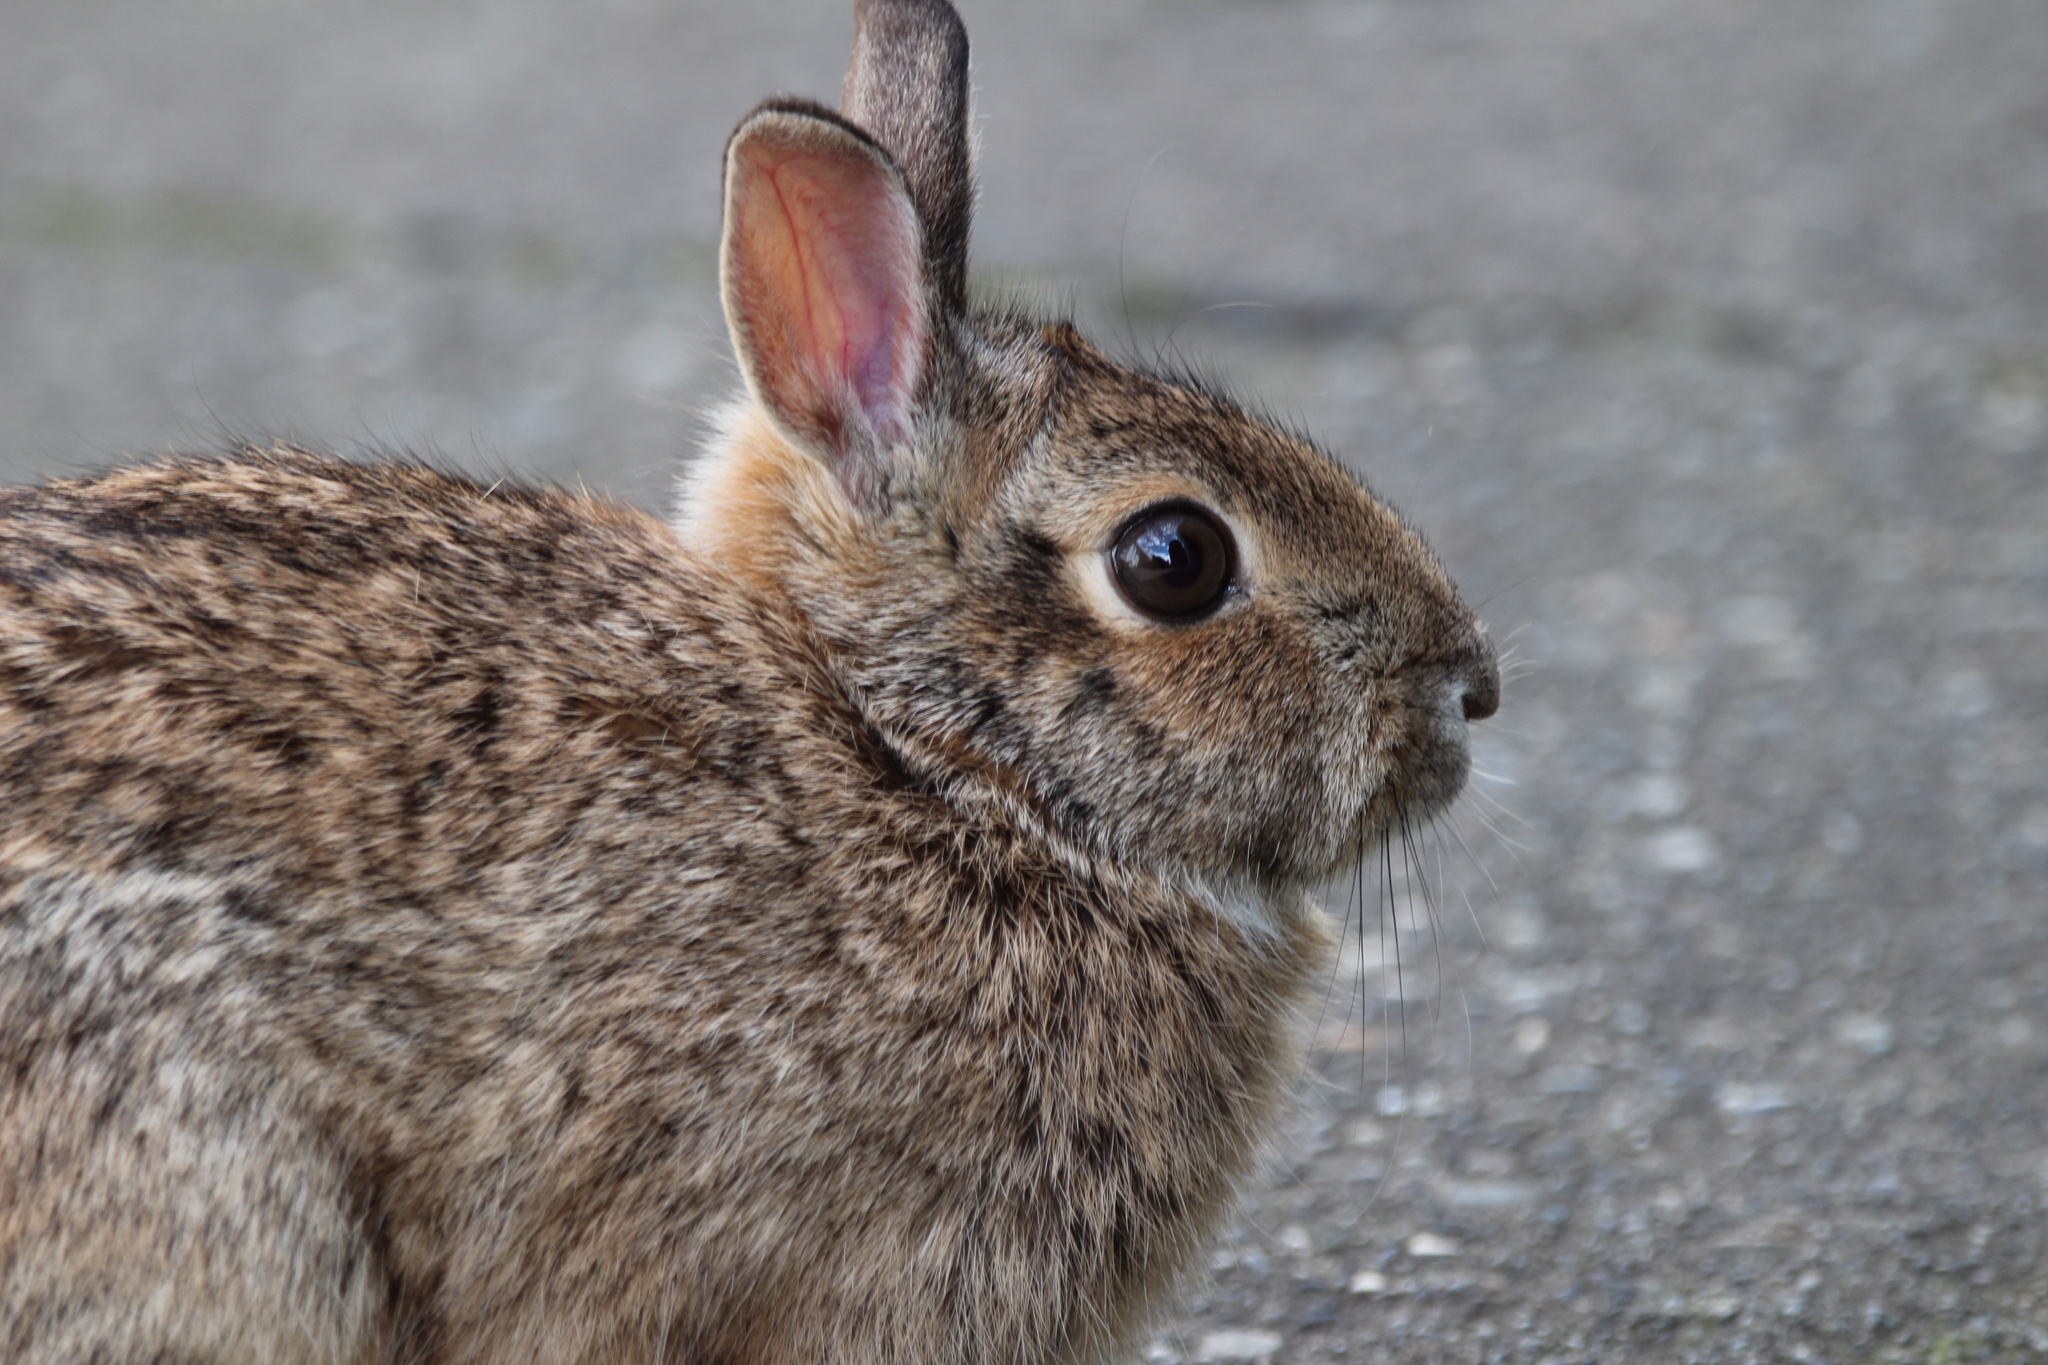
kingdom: Animalia
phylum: Chordata
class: Mammalia
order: Lagomorpha
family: Leporidae
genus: Sylvilagus
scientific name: Sylvilagus floridanus
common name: Eastern cottontail
